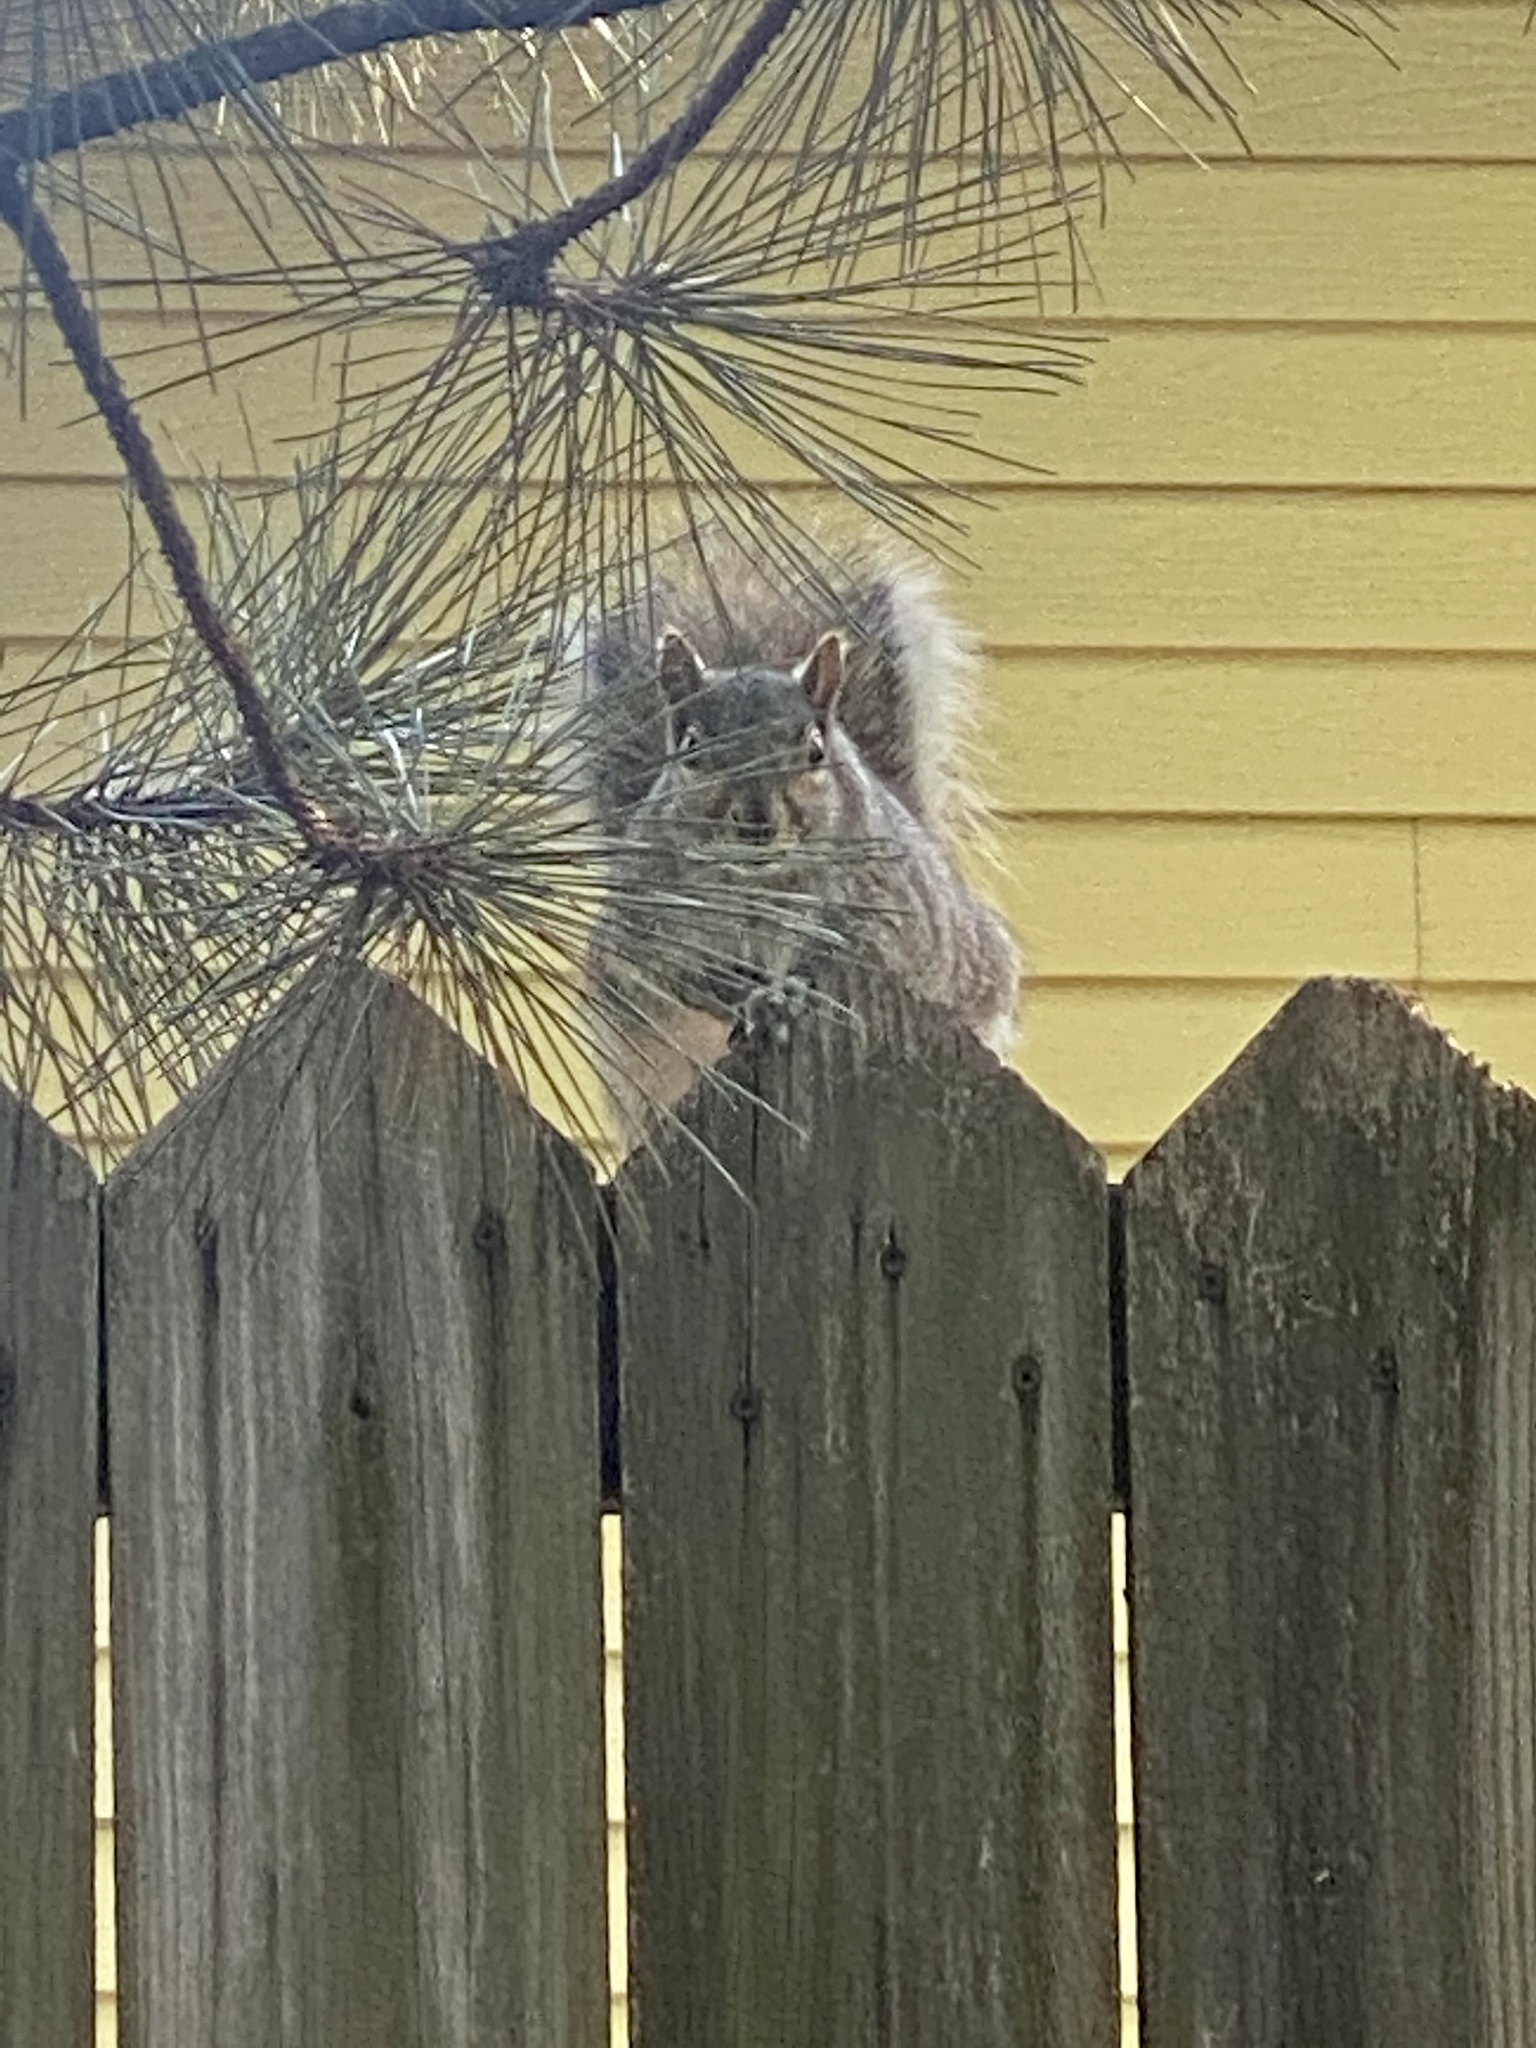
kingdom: Animalia
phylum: Chordata
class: Mammalia
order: Rodentia
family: Sciuridae
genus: Sciurus
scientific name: Sciurus carolinensis
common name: Eastern gray squirrel
